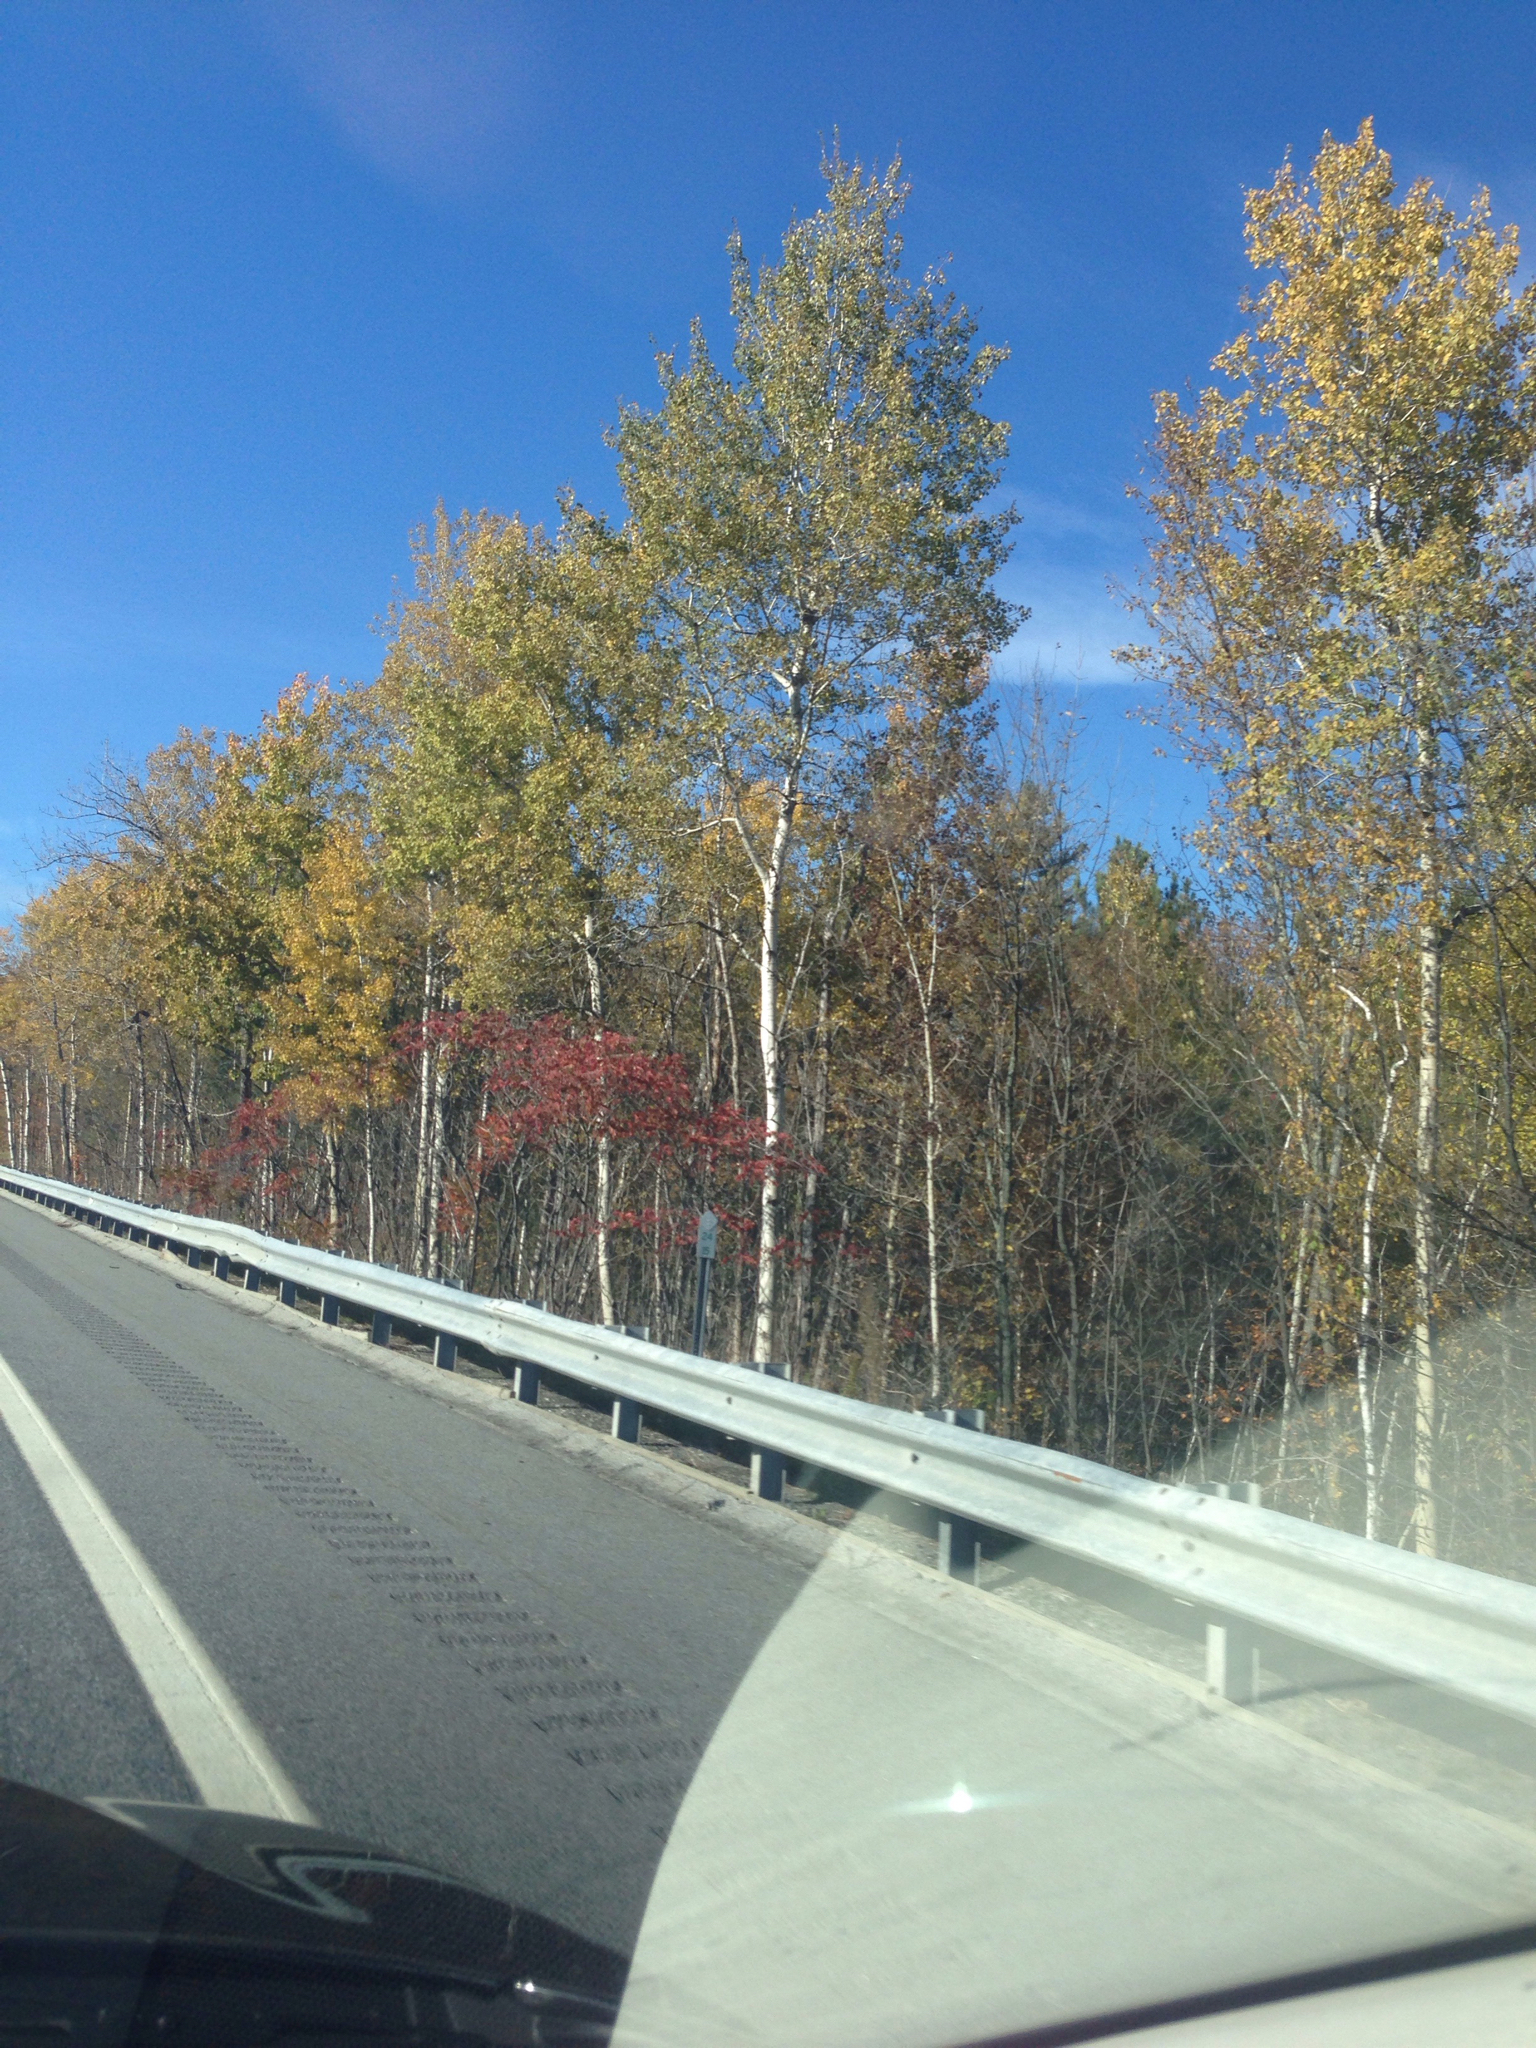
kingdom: Plantae
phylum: Tracheophyta
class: Magnoliopsida
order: Malpighiales
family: Salicaceae
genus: Populus
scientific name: Populus tremuloides
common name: Quaking aspen
